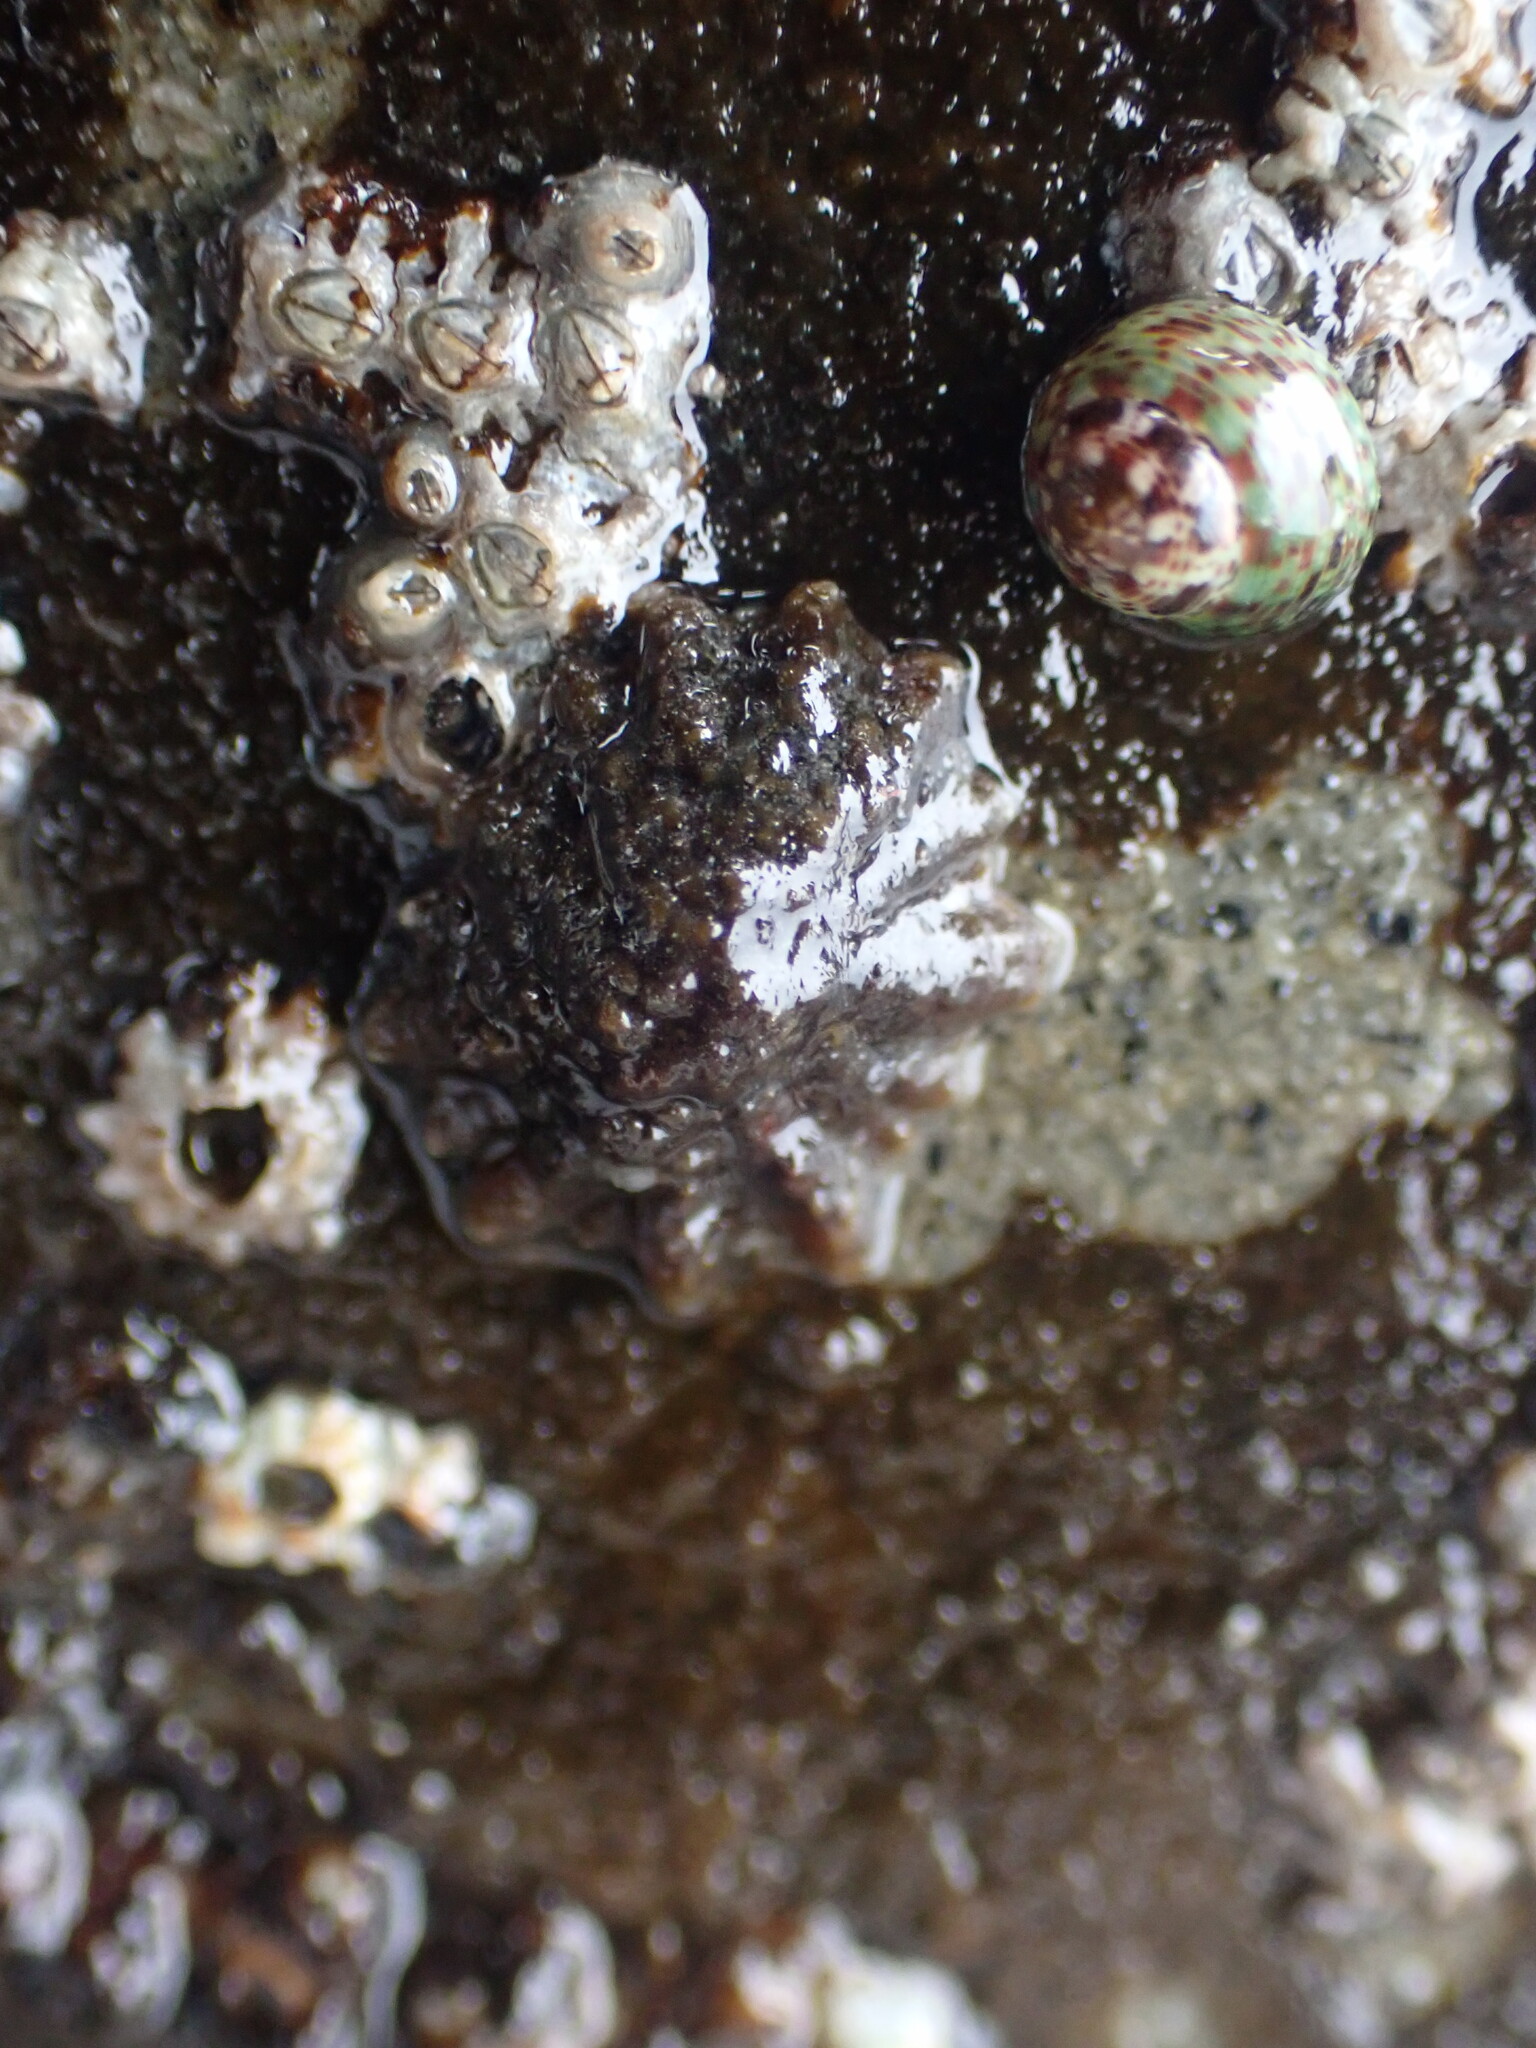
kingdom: Animalia
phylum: Mollusca
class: Gastropoda
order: Siphonariida
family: Siphonariidae
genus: Siphonaria
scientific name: Siphonaria australis
